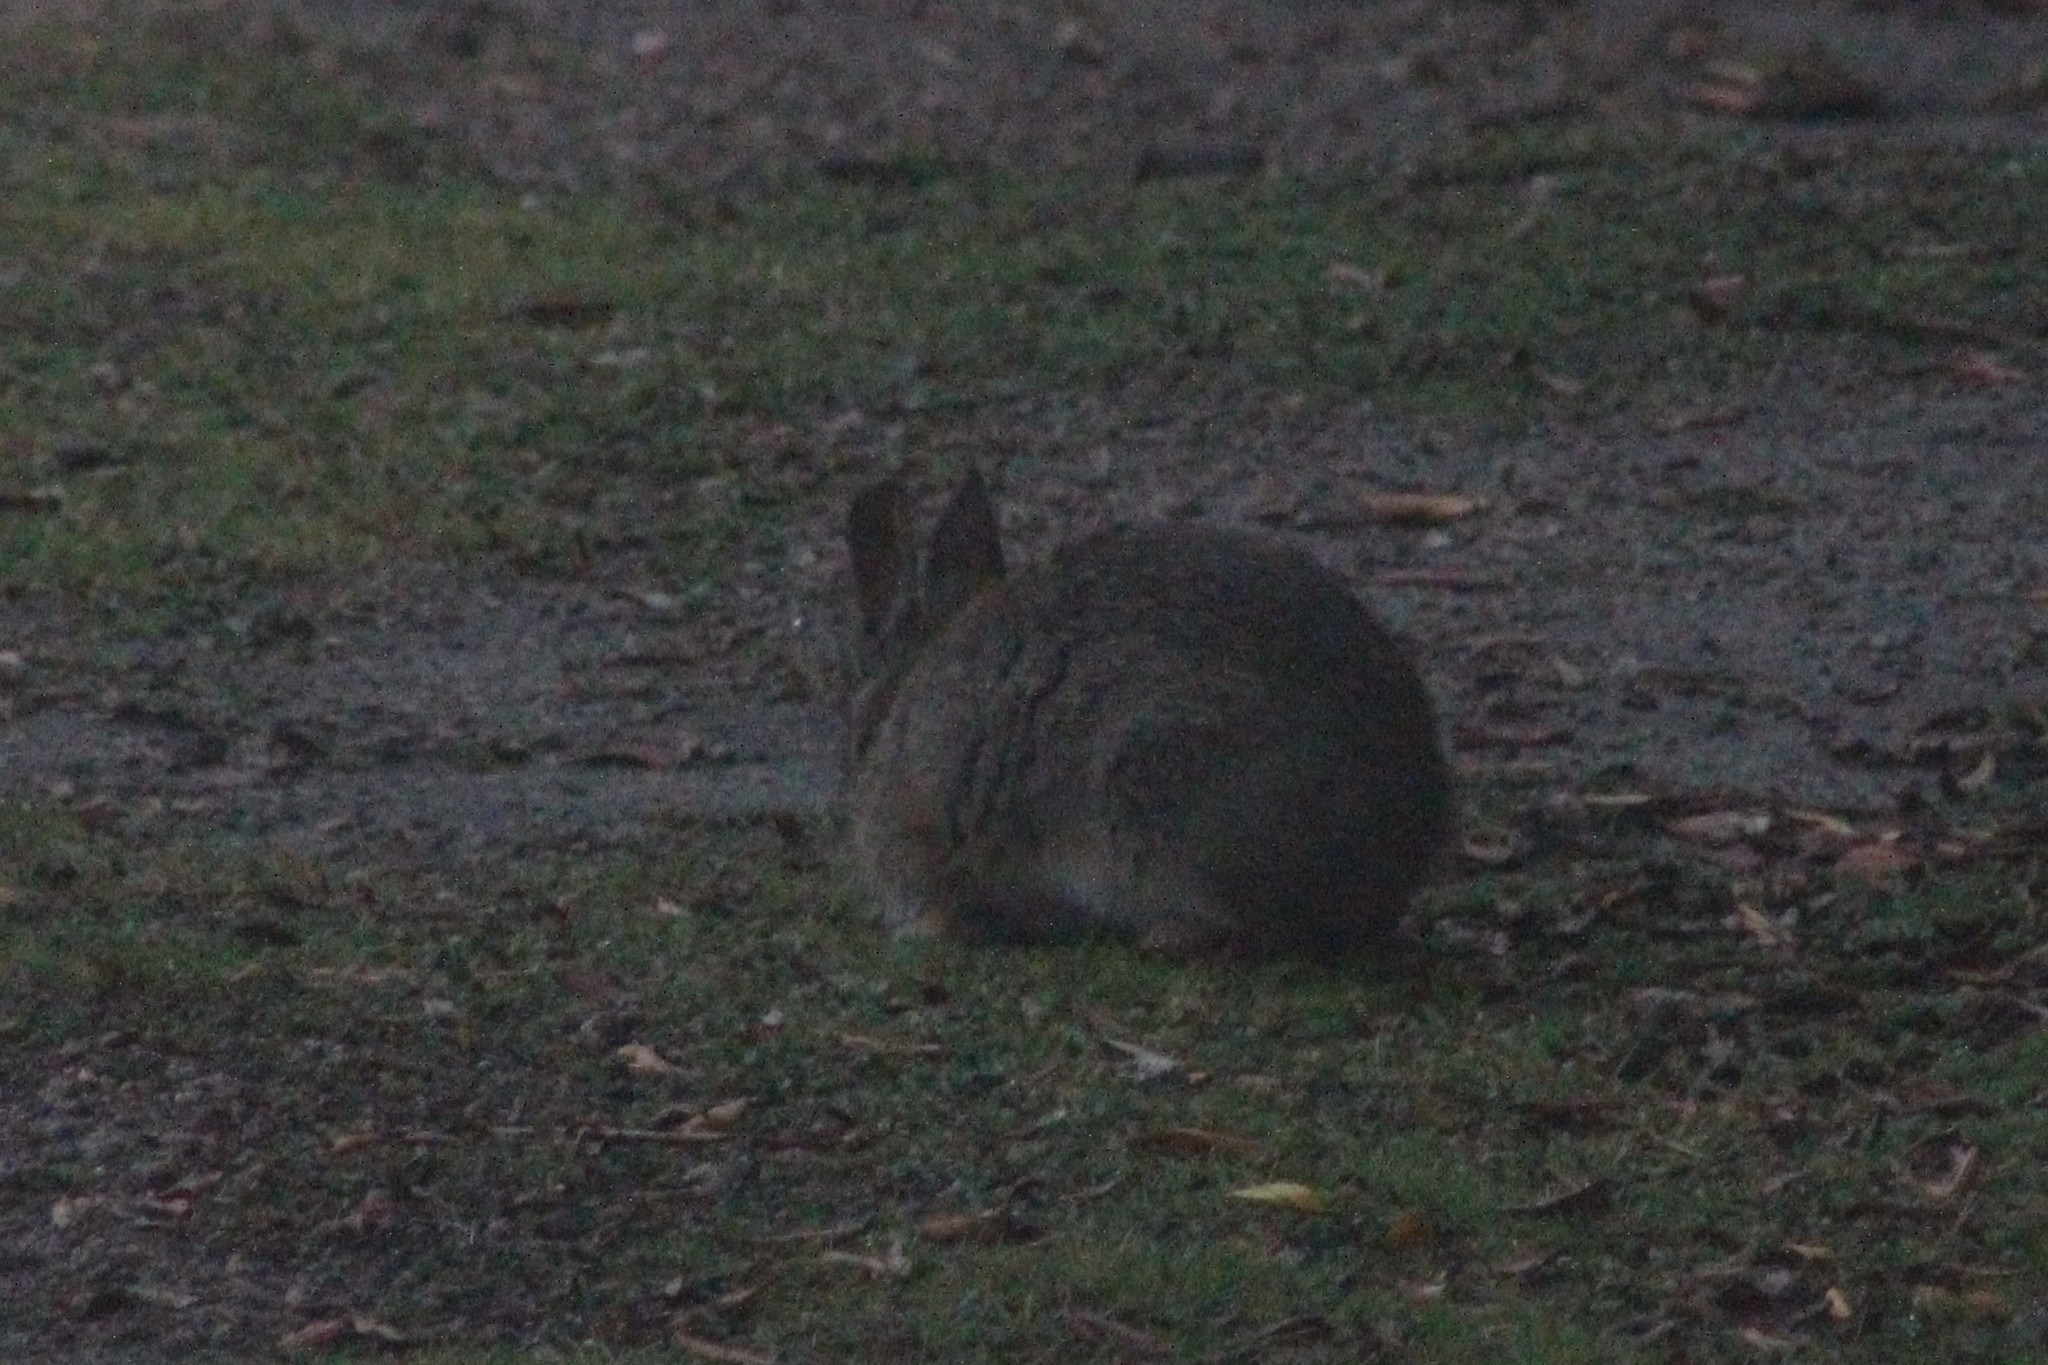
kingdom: Animalia
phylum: Chordata
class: Mammalia
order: Lagomorpha
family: Leporidae
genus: Sylvilagus
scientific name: Sylvilagus andinus
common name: Andean cottontail
